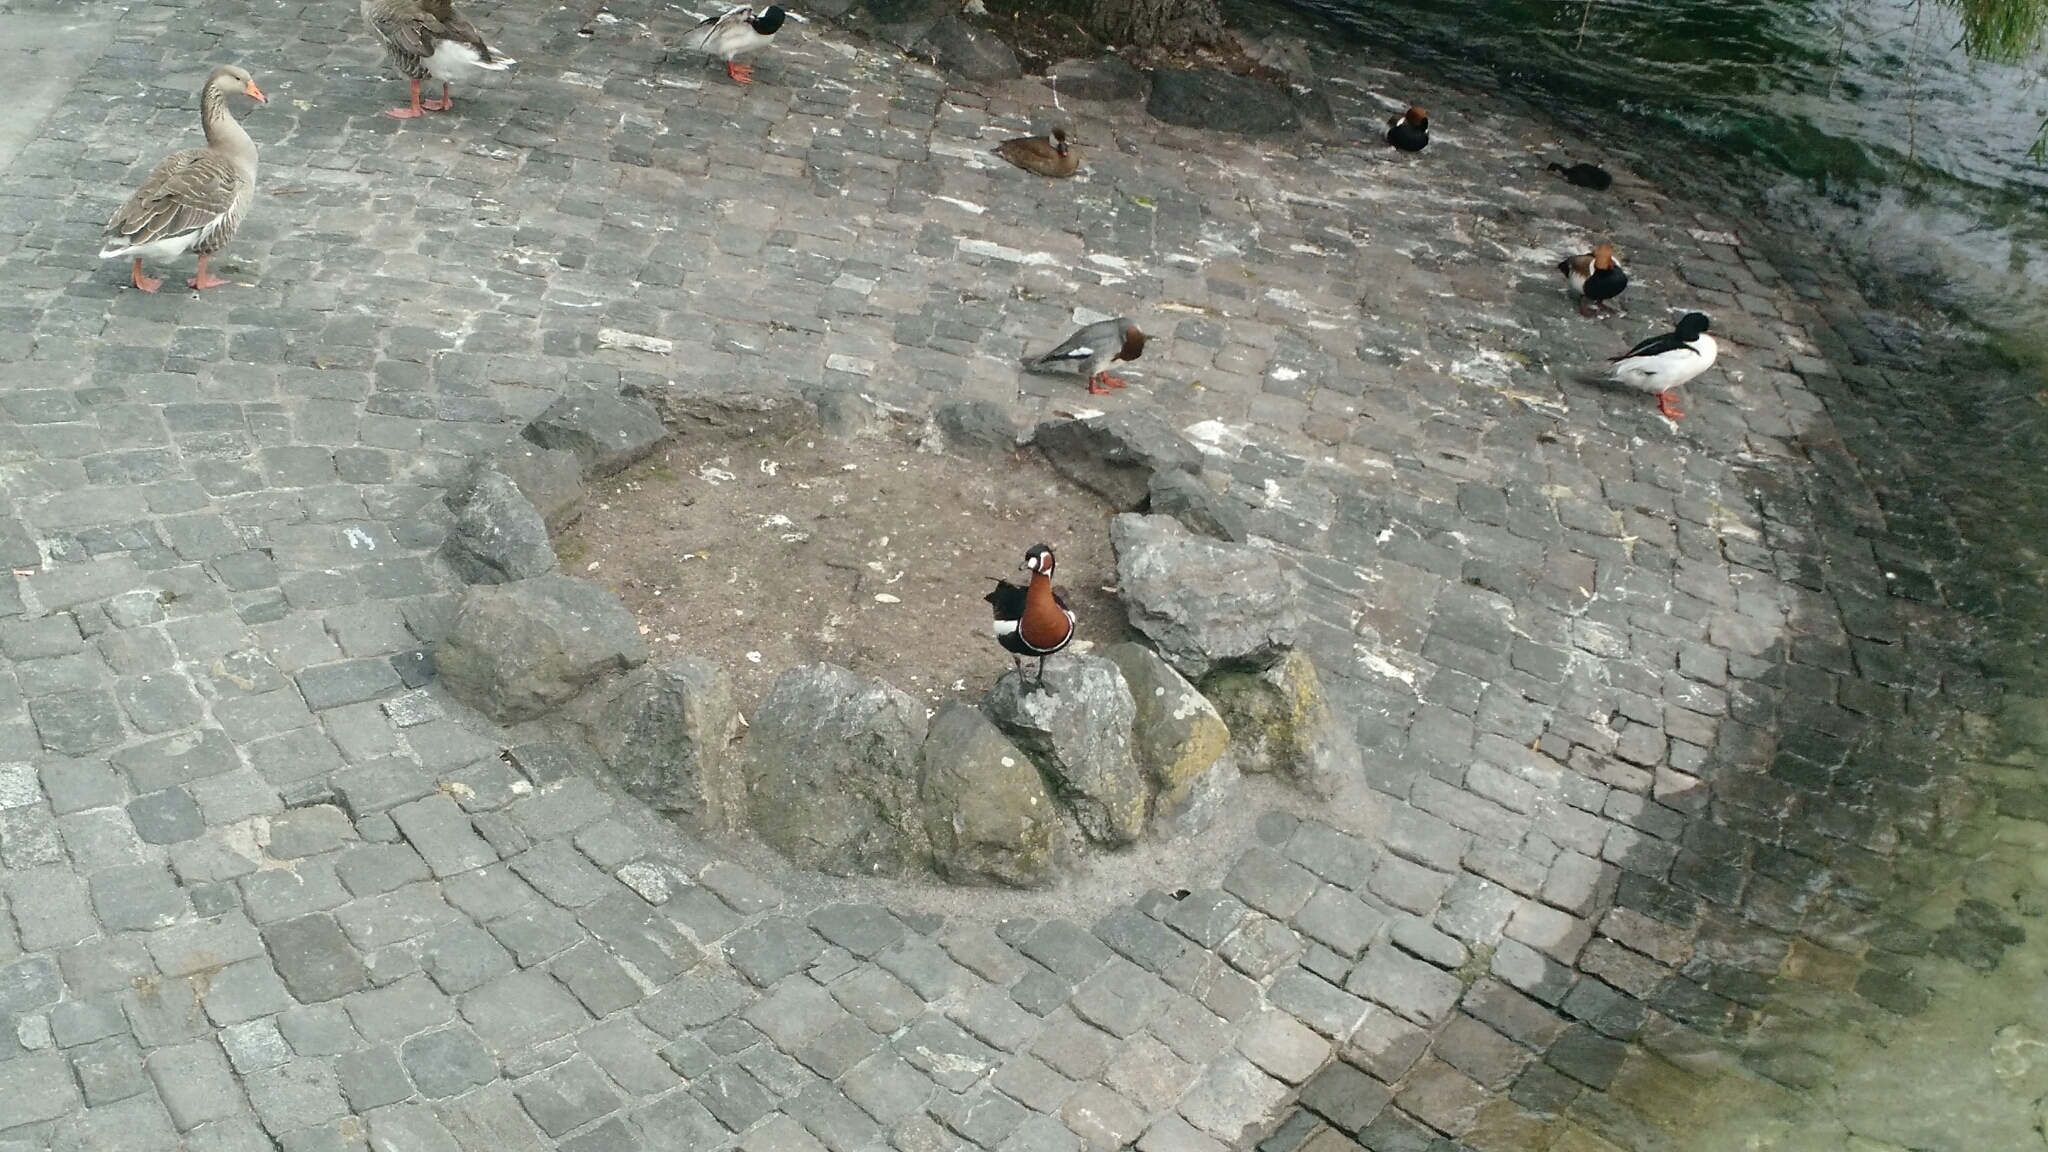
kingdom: Animalia
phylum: Chordata
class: Aves
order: Anseriformes
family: Anatidae
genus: Branta
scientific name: Branta ruficollis
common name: Red-breasted goose
